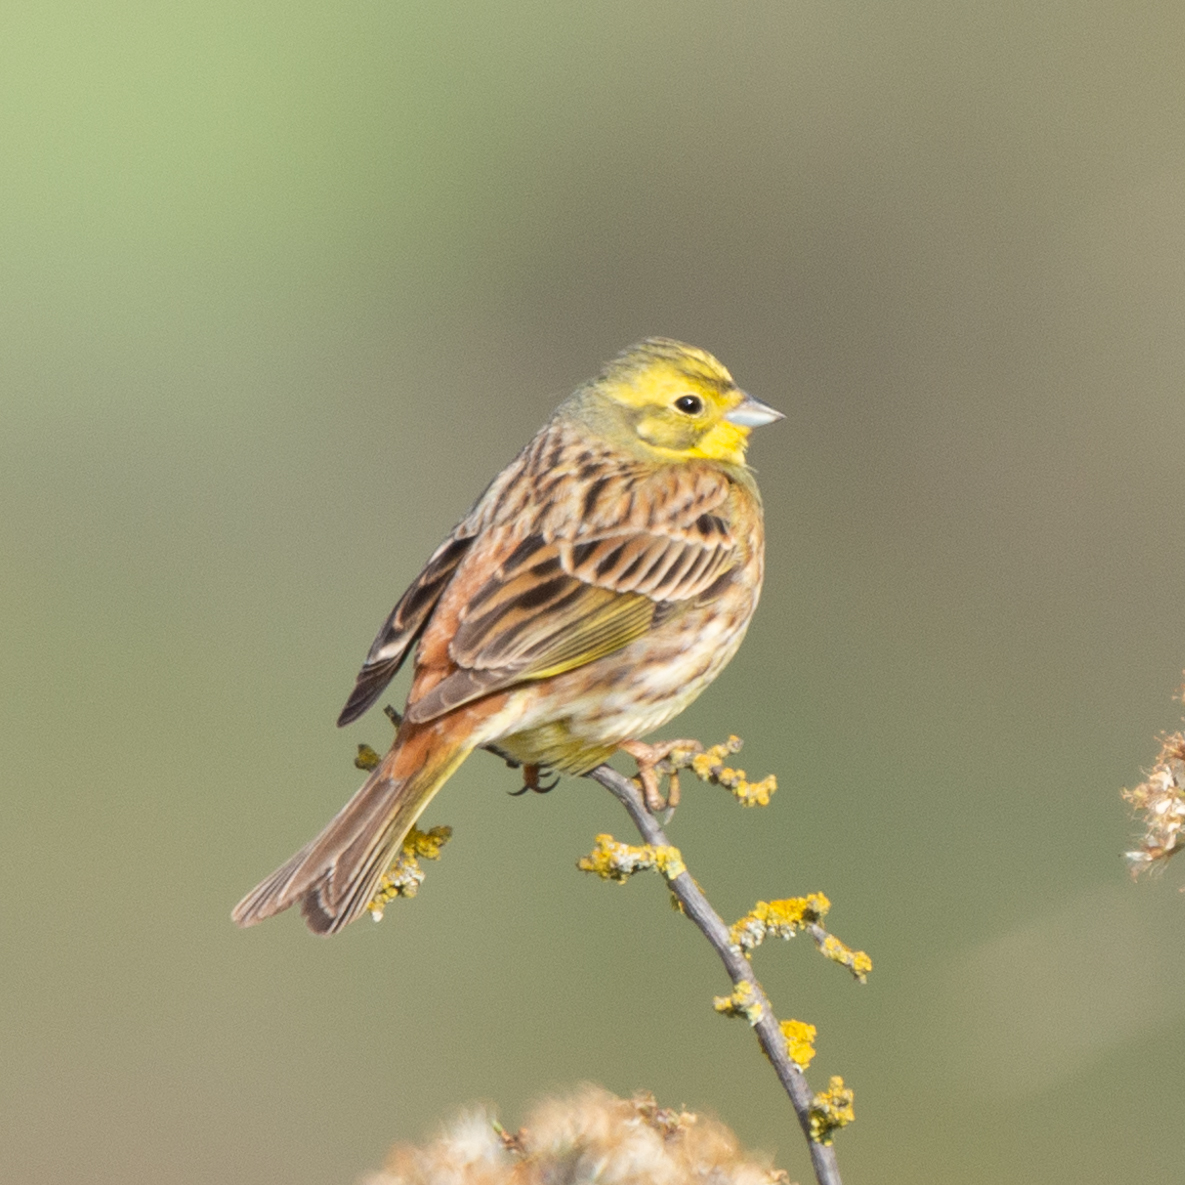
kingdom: Animalia
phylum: Chordata
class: Aves
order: Passeriformes
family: Emberizidae
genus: Emberiza
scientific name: Emberiza citrinella
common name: Yellowhammer
